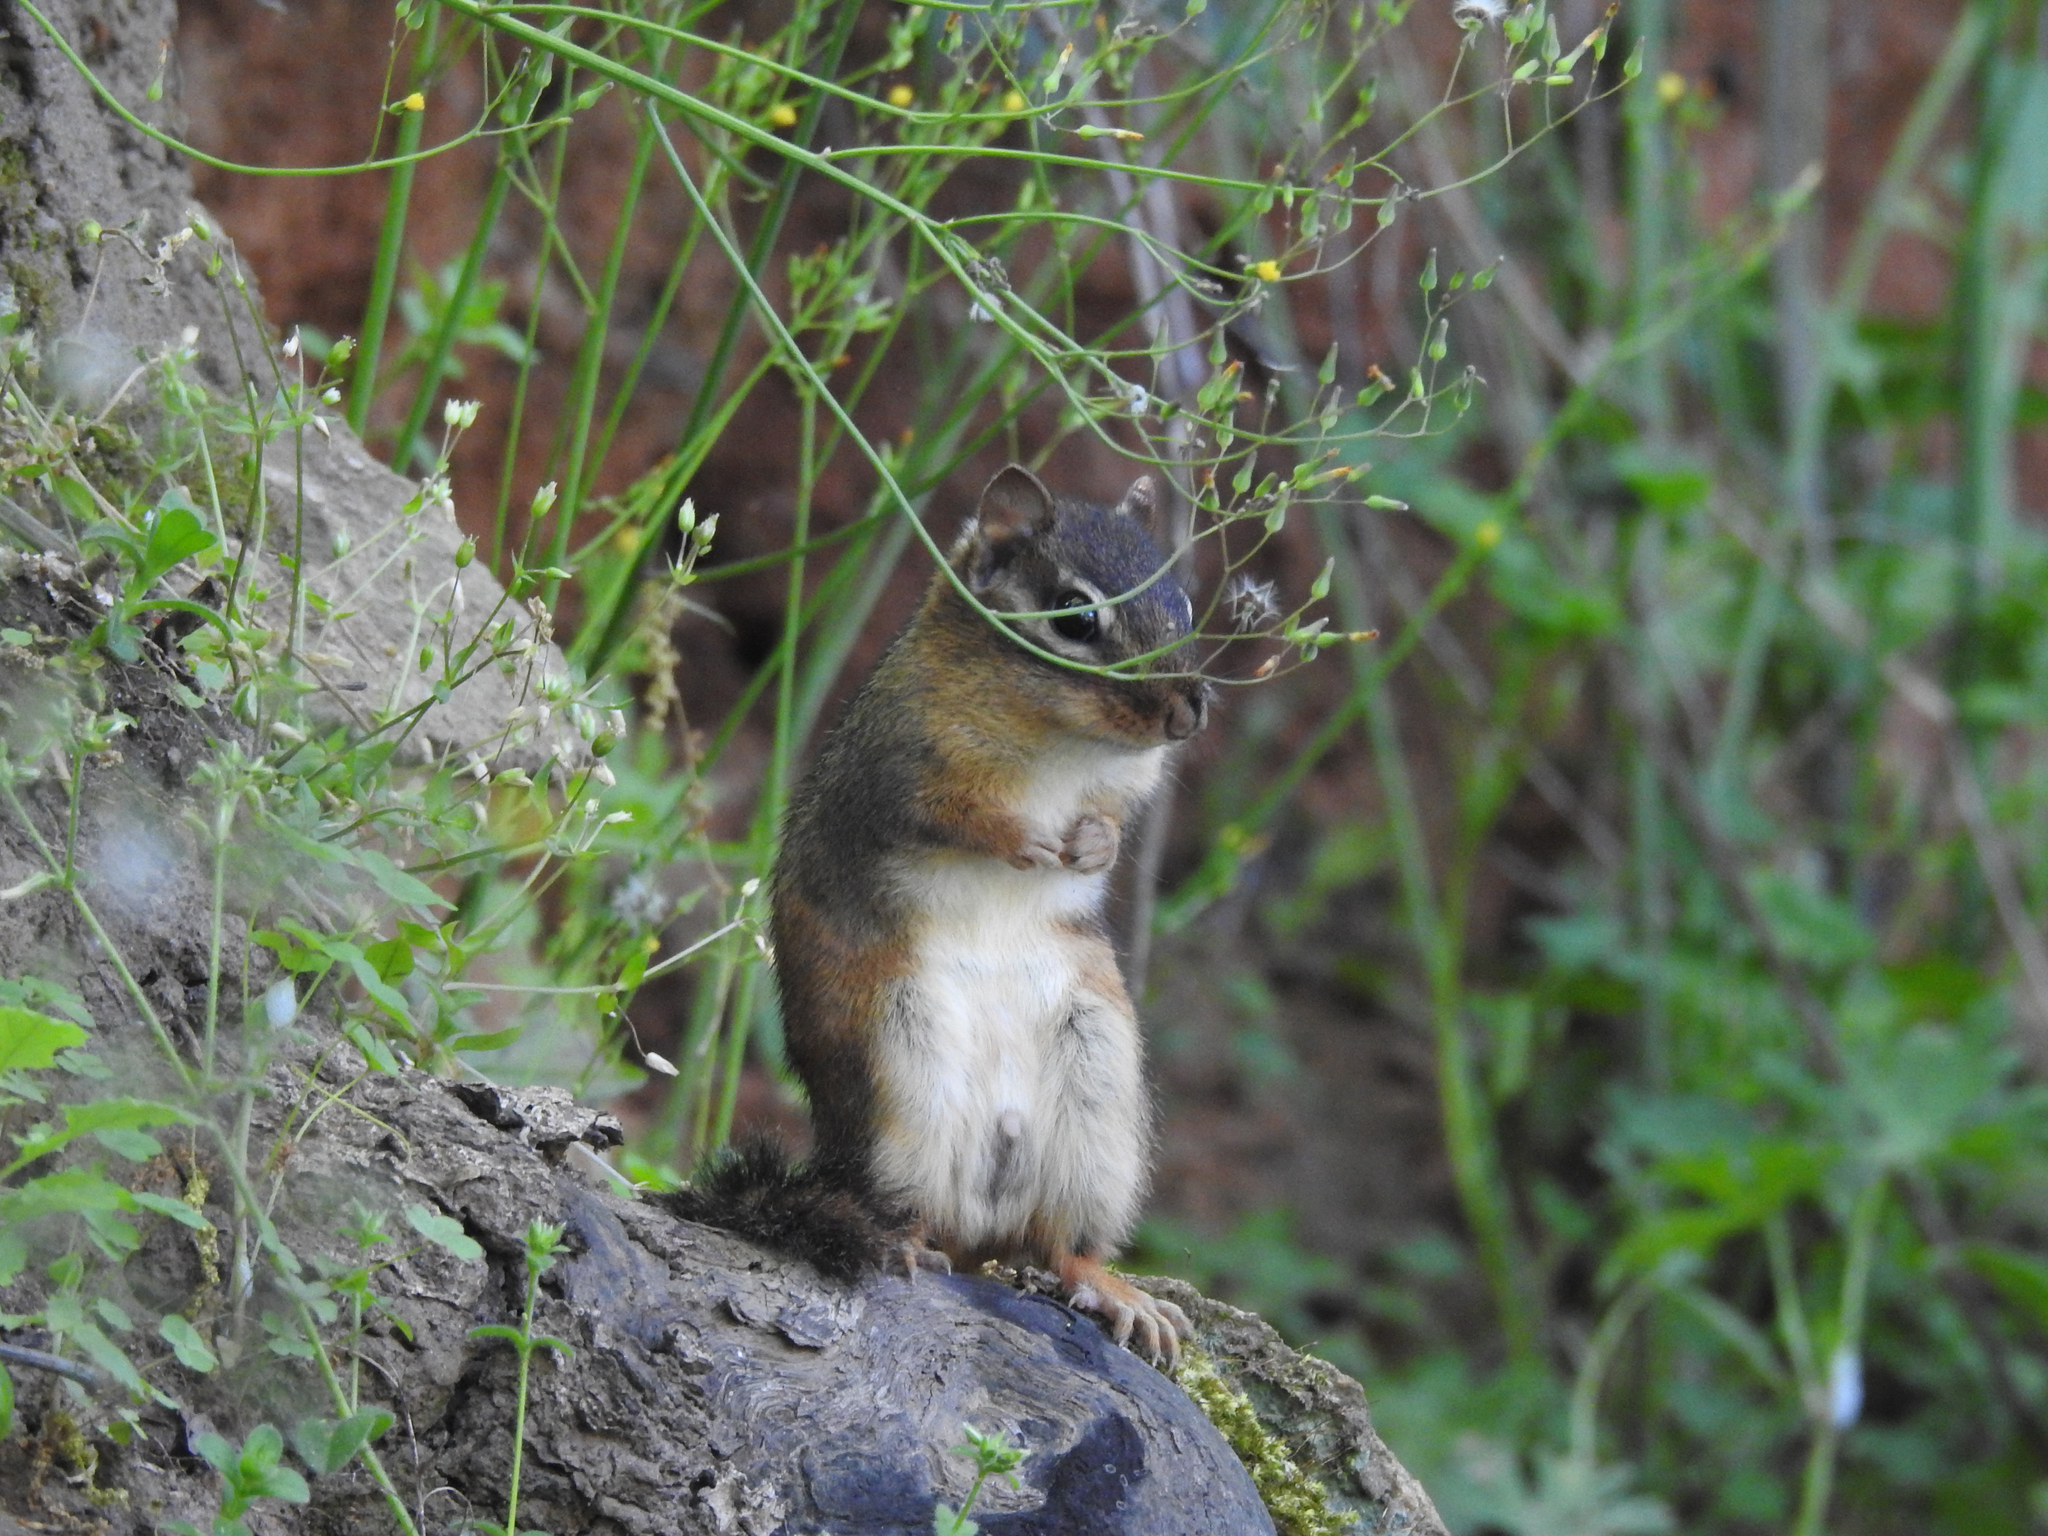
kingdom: Animalia
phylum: Chordata
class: Mammalia
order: Rodentia
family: Sciuridae
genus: Tamias
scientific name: Tamias striatus
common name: Eastern chipmunk
